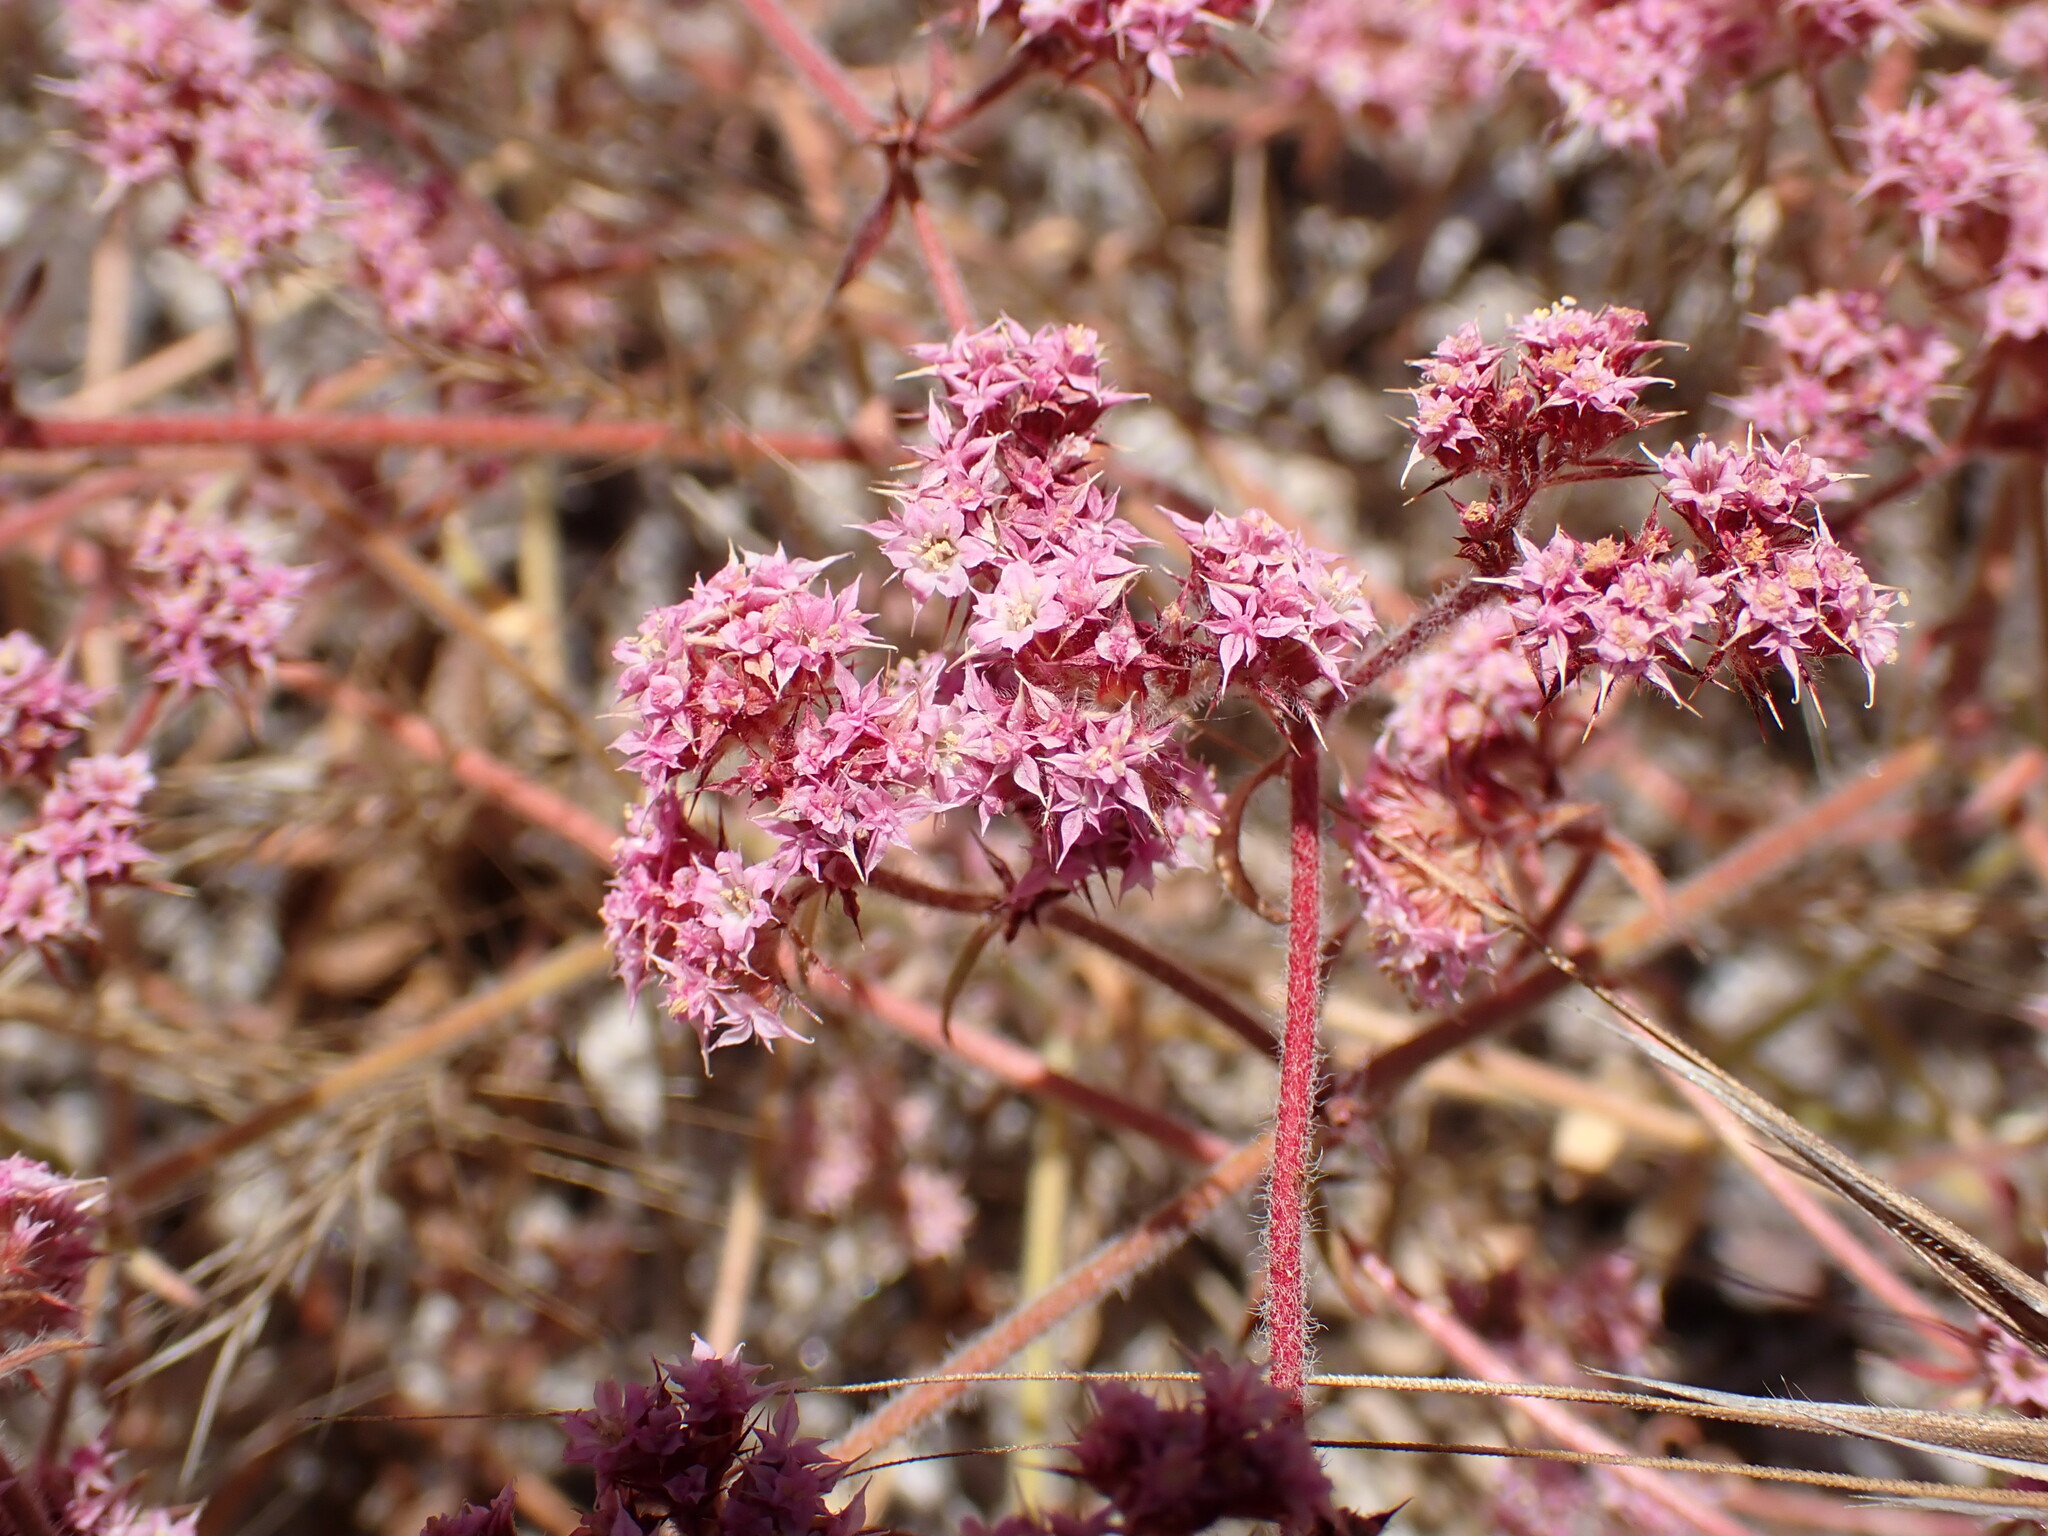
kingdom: Plantae
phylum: Tracheophyta
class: Magnoliopsida
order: Caryophyllales
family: Polygonaceae
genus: Chorizanthe
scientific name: Chorizanthe pungens
